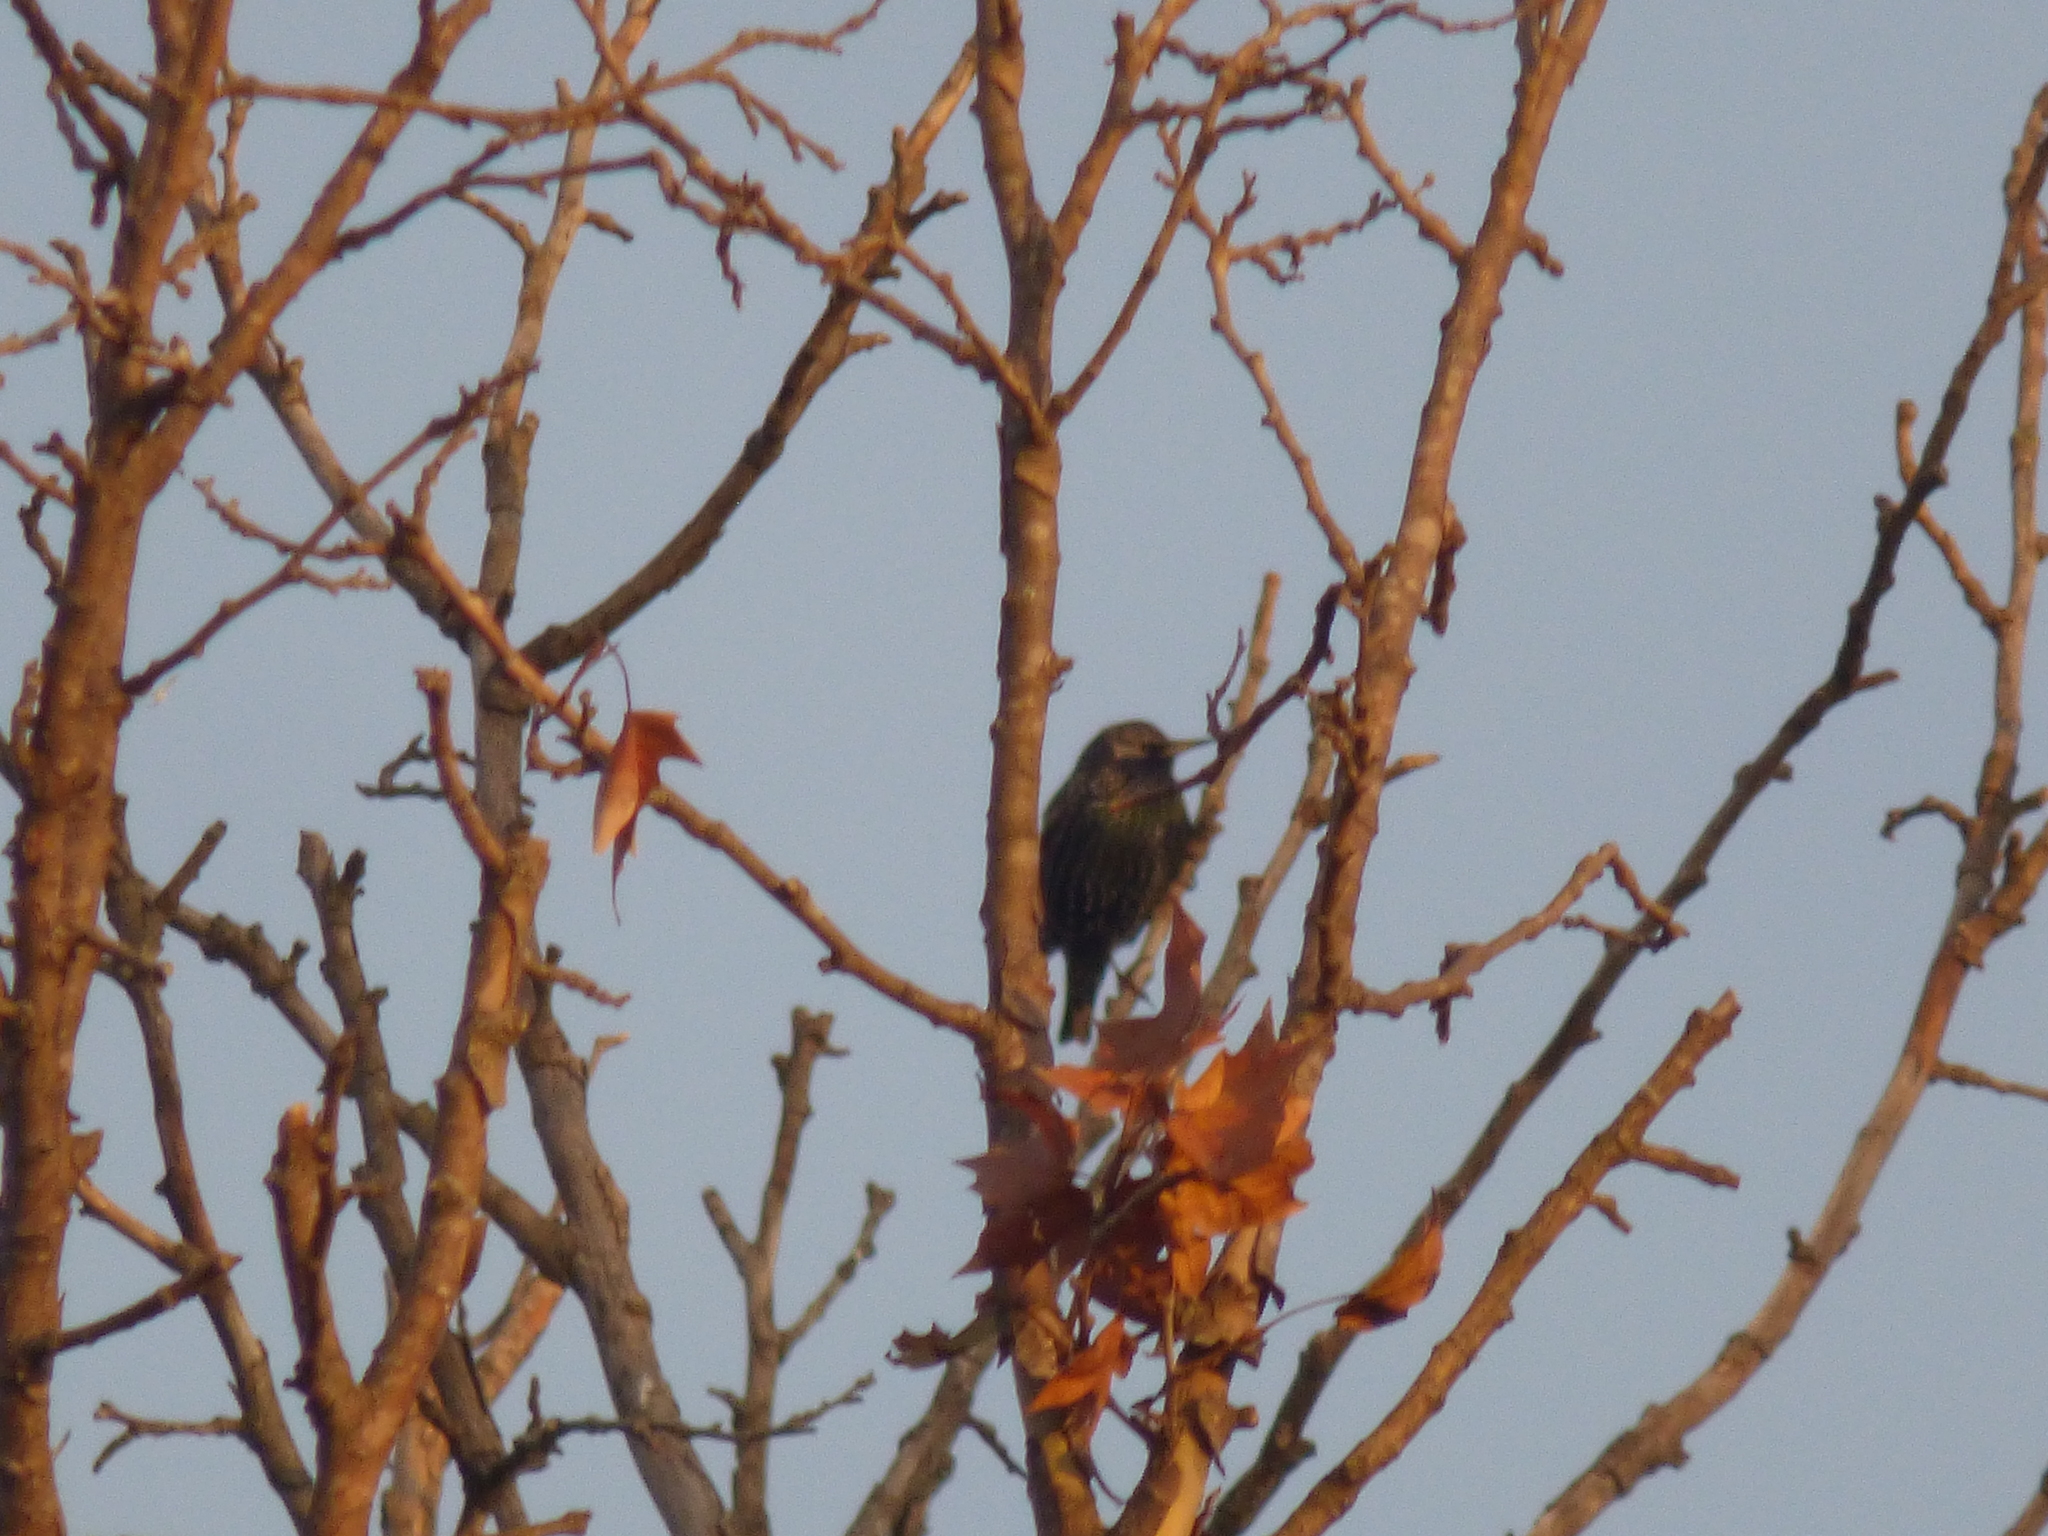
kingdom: Animalia
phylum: Chordata
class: Aves
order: Passeriformes
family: Sturnidae
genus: Sturnus
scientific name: Sturnus vulgaris
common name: Common starling
